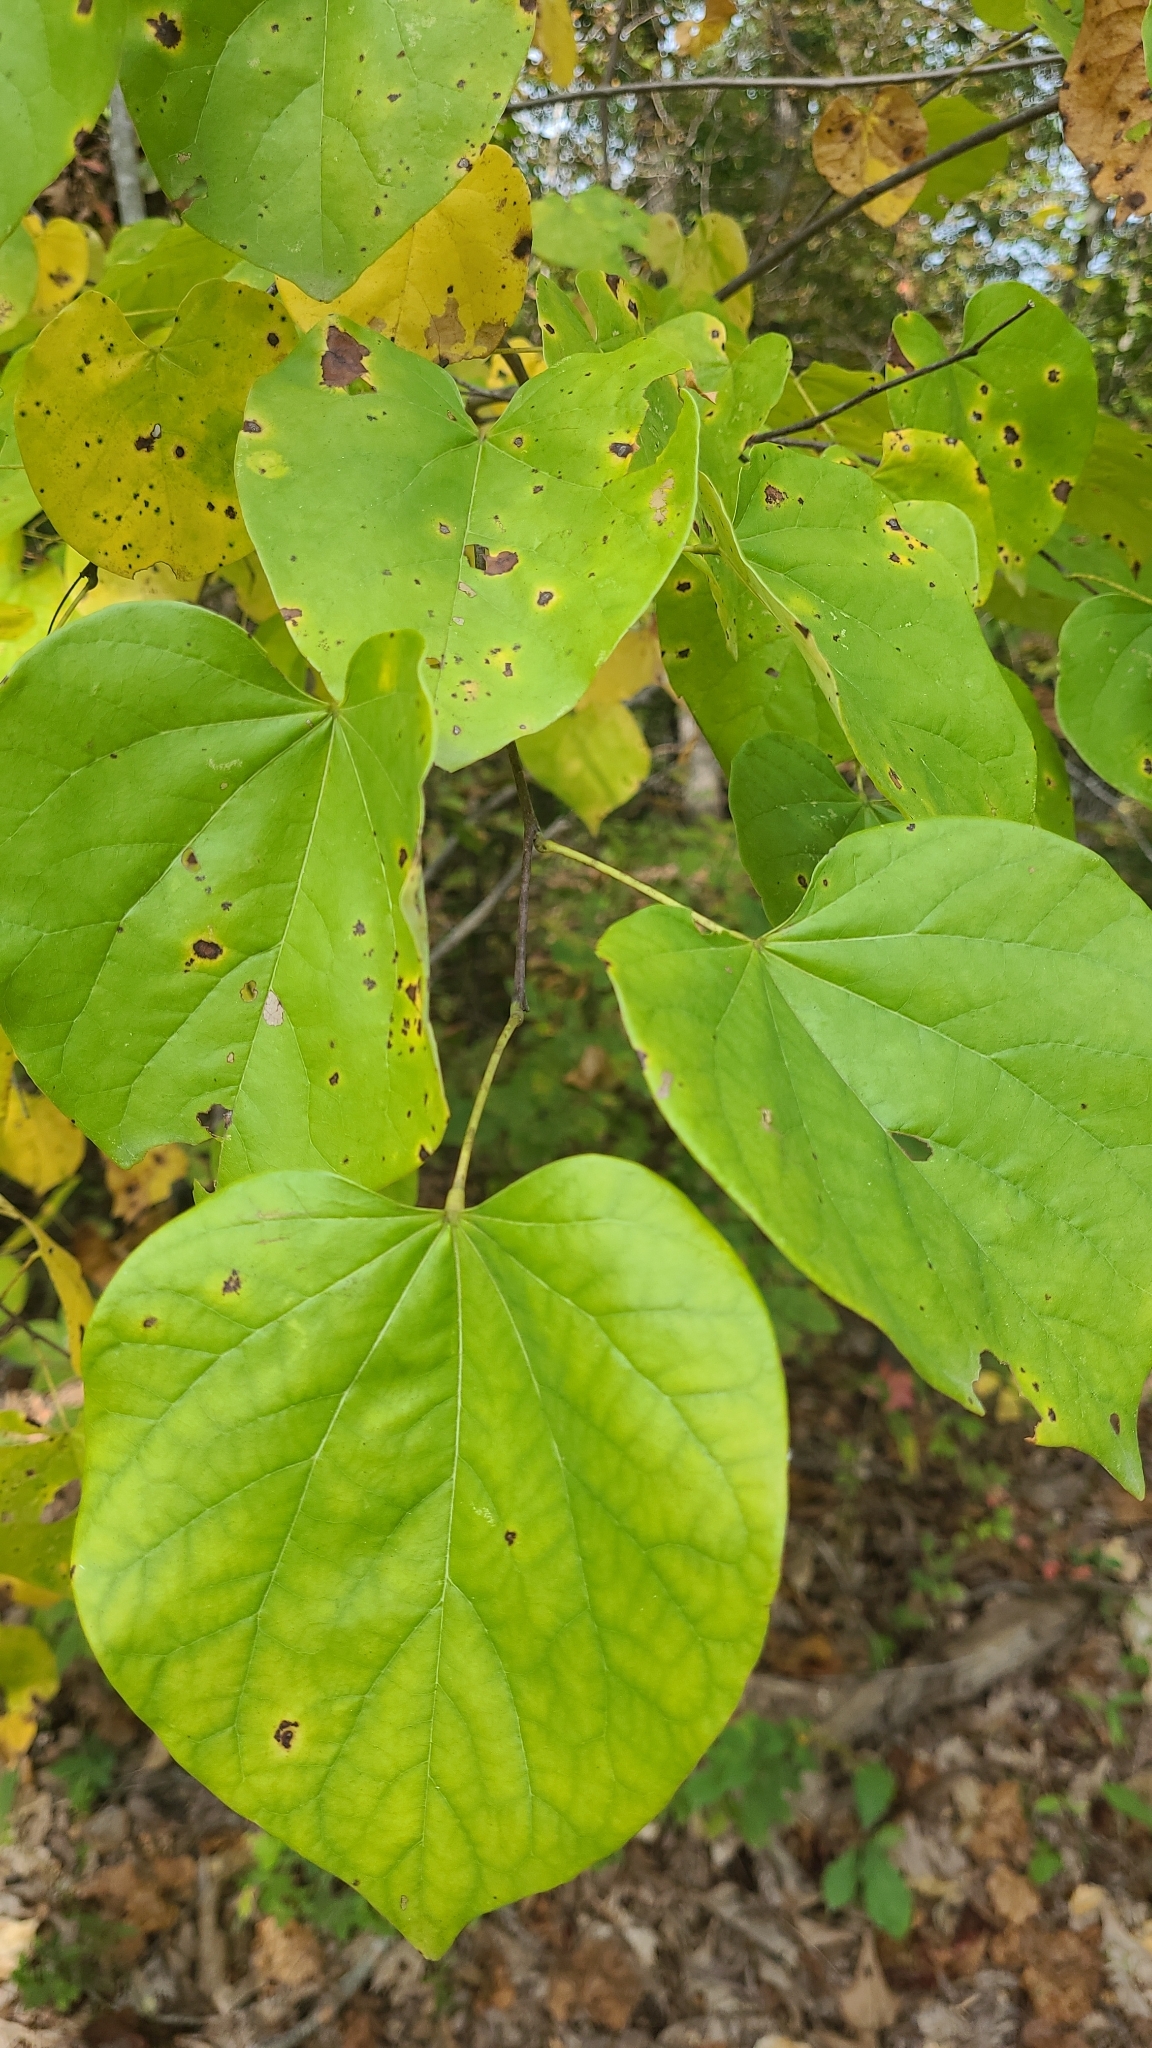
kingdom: Plantae
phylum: Tracheophyta
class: Magnoliopsida
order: Fabales
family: Fabaceae
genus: Cercis
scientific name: Cercis canadensis
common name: Eastern redbud
